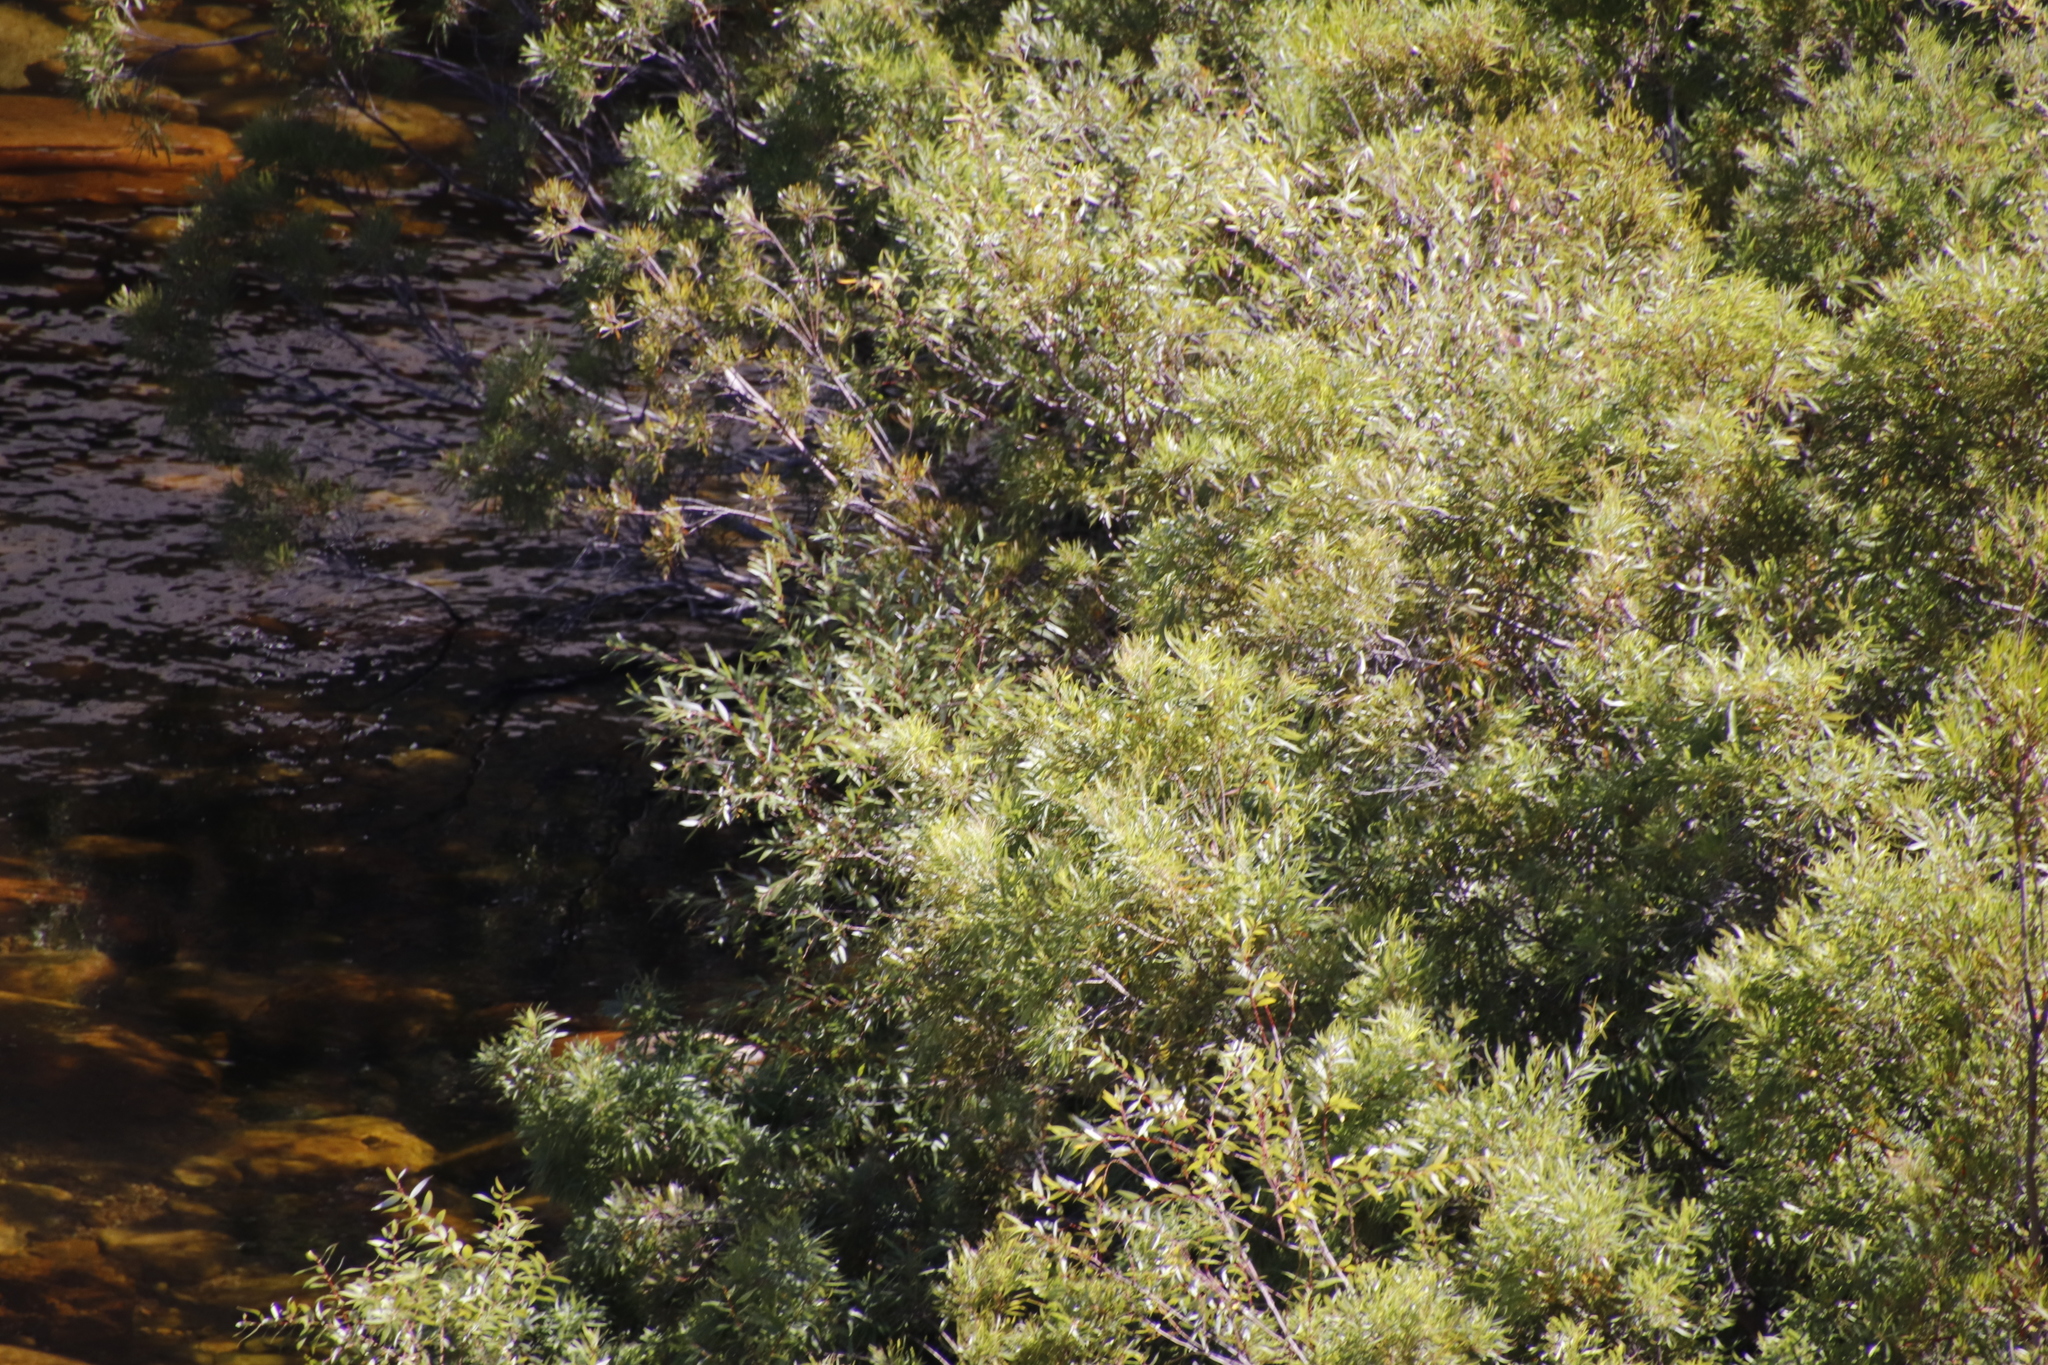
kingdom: Plantae
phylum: Tracheophyta
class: Magnoliopsida
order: Malpighiales
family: Salicaceae
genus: Salix
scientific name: Salix mucronata
